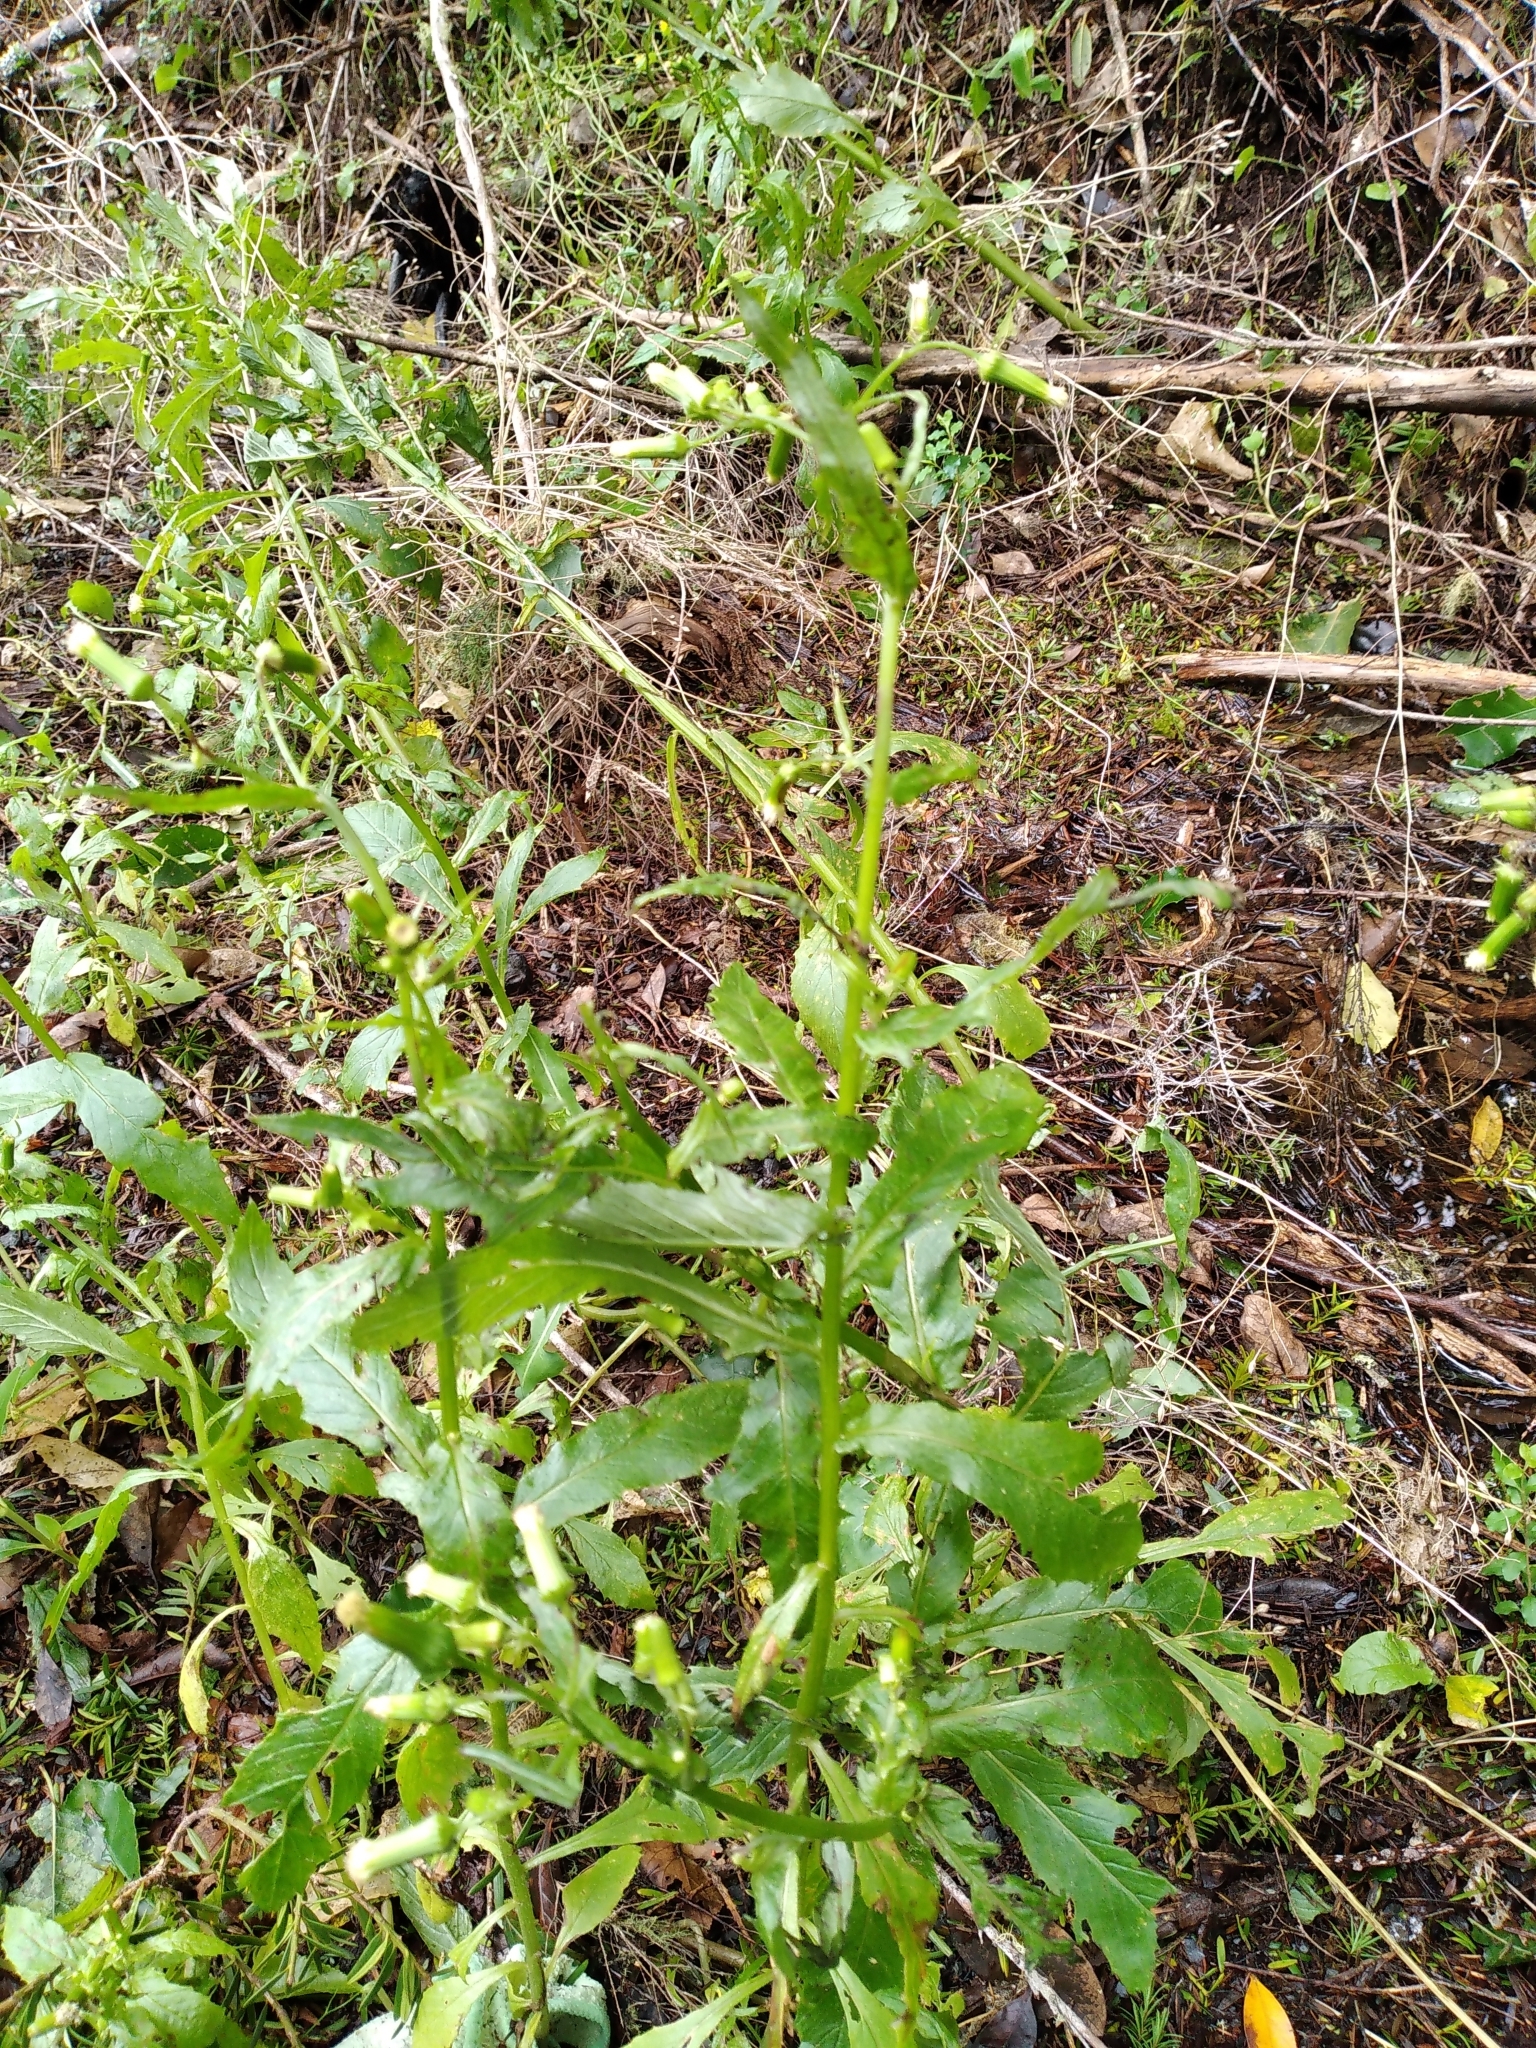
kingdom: Plantae
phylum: Tracheophyta
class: Magnoliopsida
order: Asterales
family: Asteraceae
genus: Erechtites
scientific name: Erechtites hieraciifolius
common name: American burnweed
